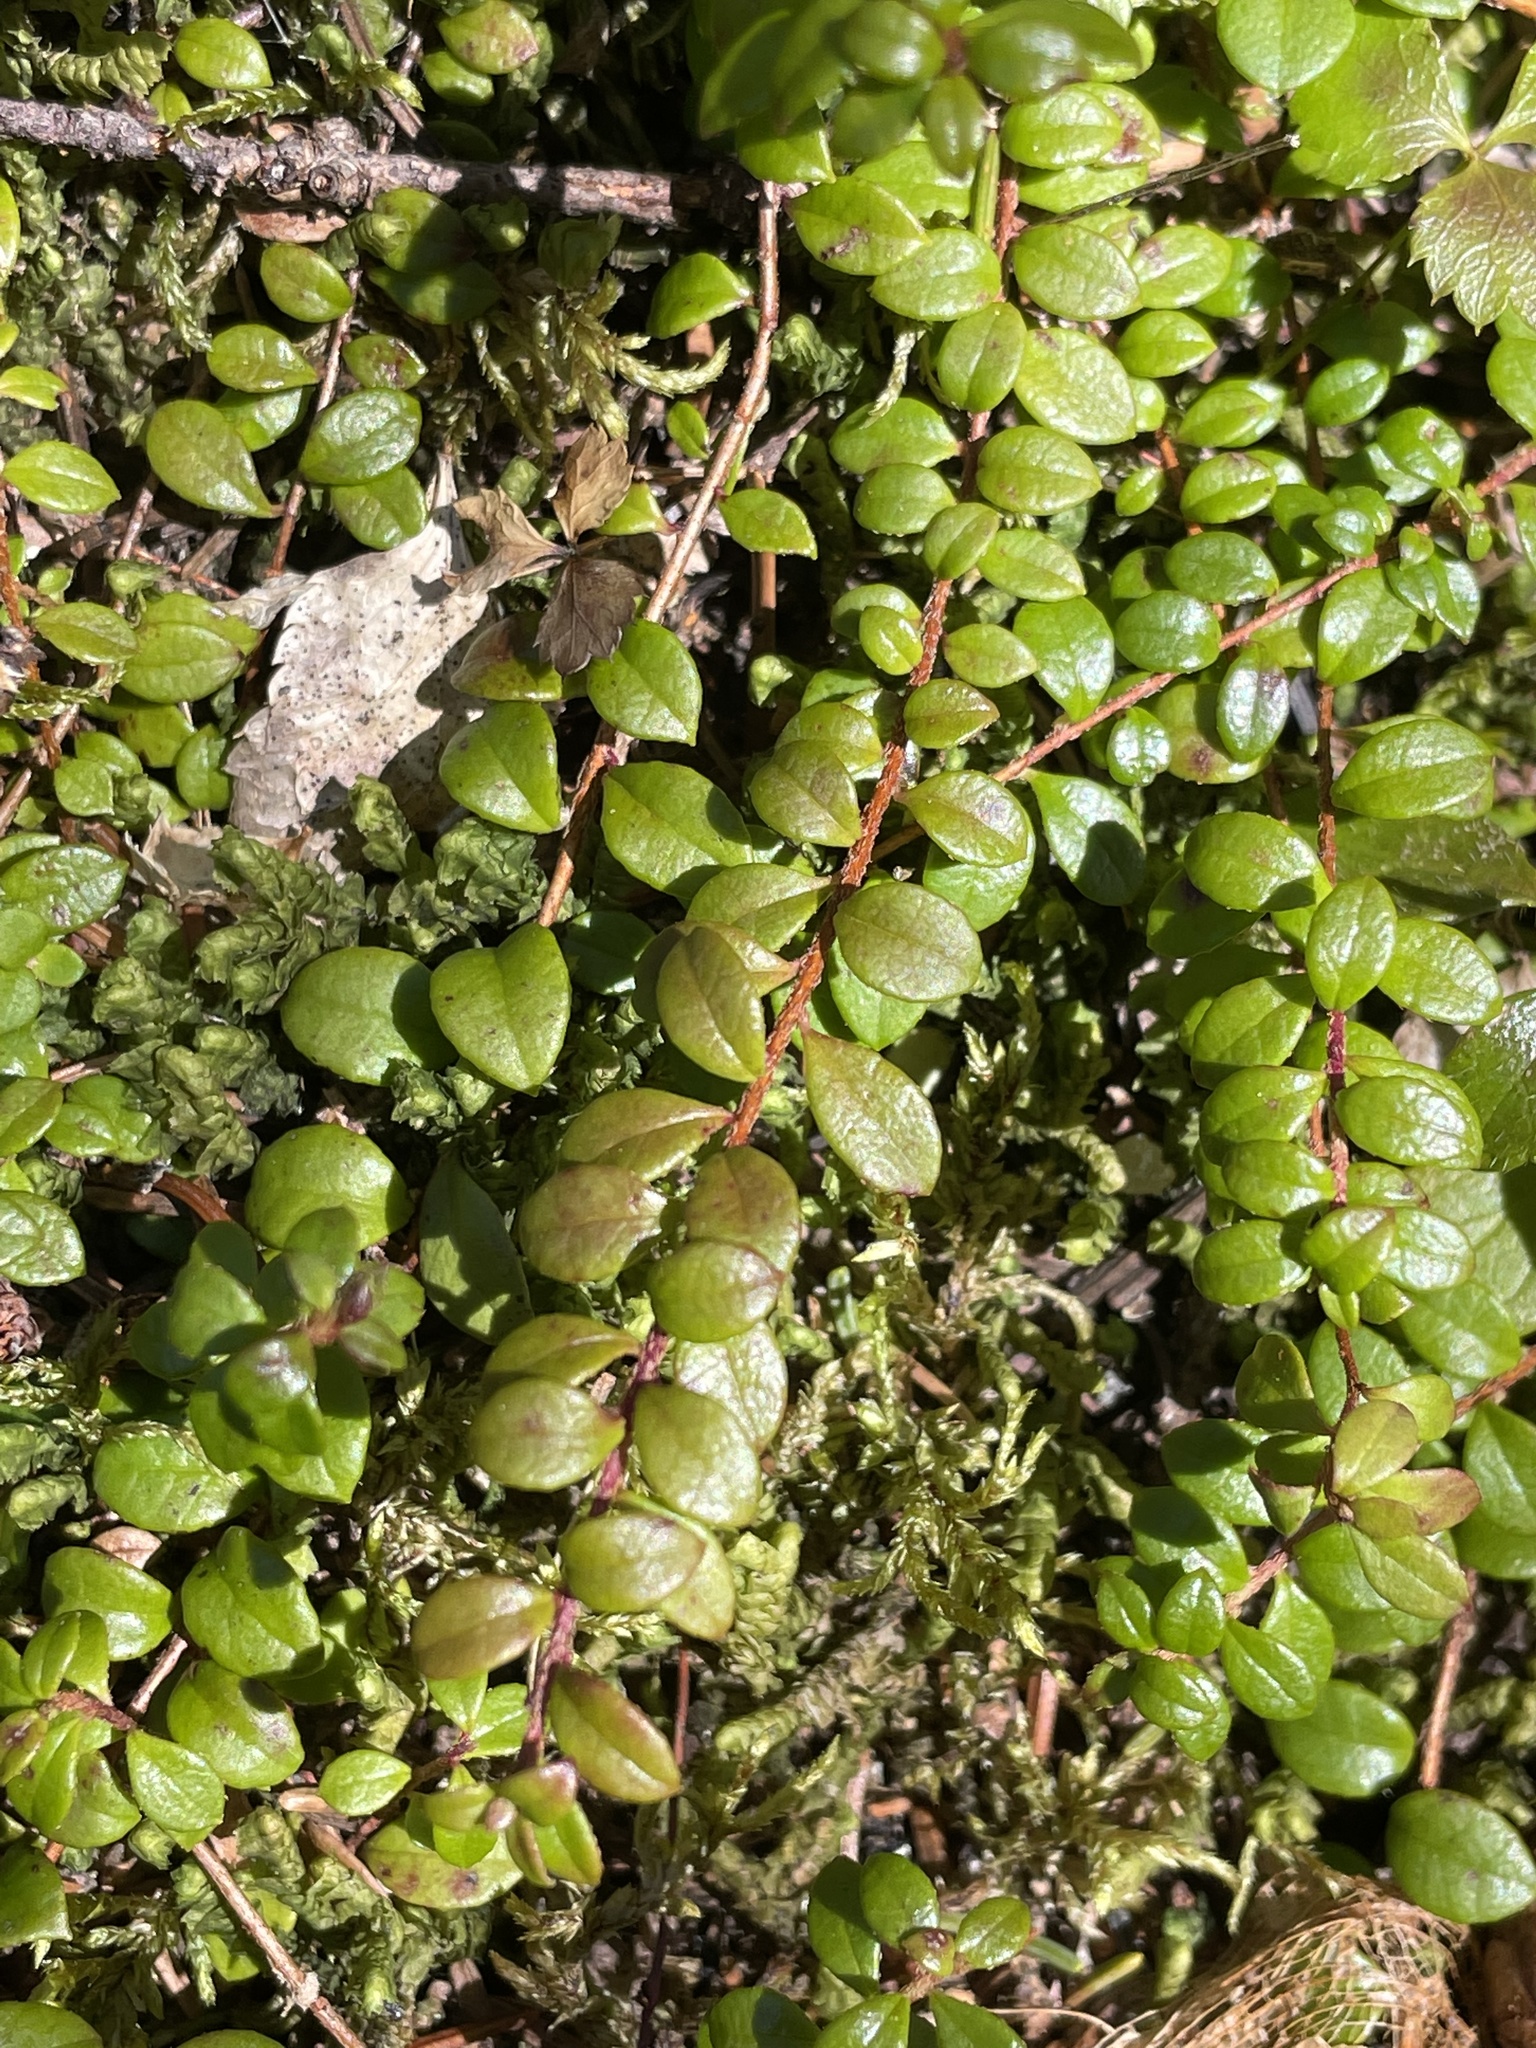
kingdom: Plantae
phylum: Tracheophyta
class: Magnoliopsida
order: Ericales
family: Ericaceae
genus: Gaultheria
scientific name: Gaultheria hispidula
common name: Cancer wintergreen
